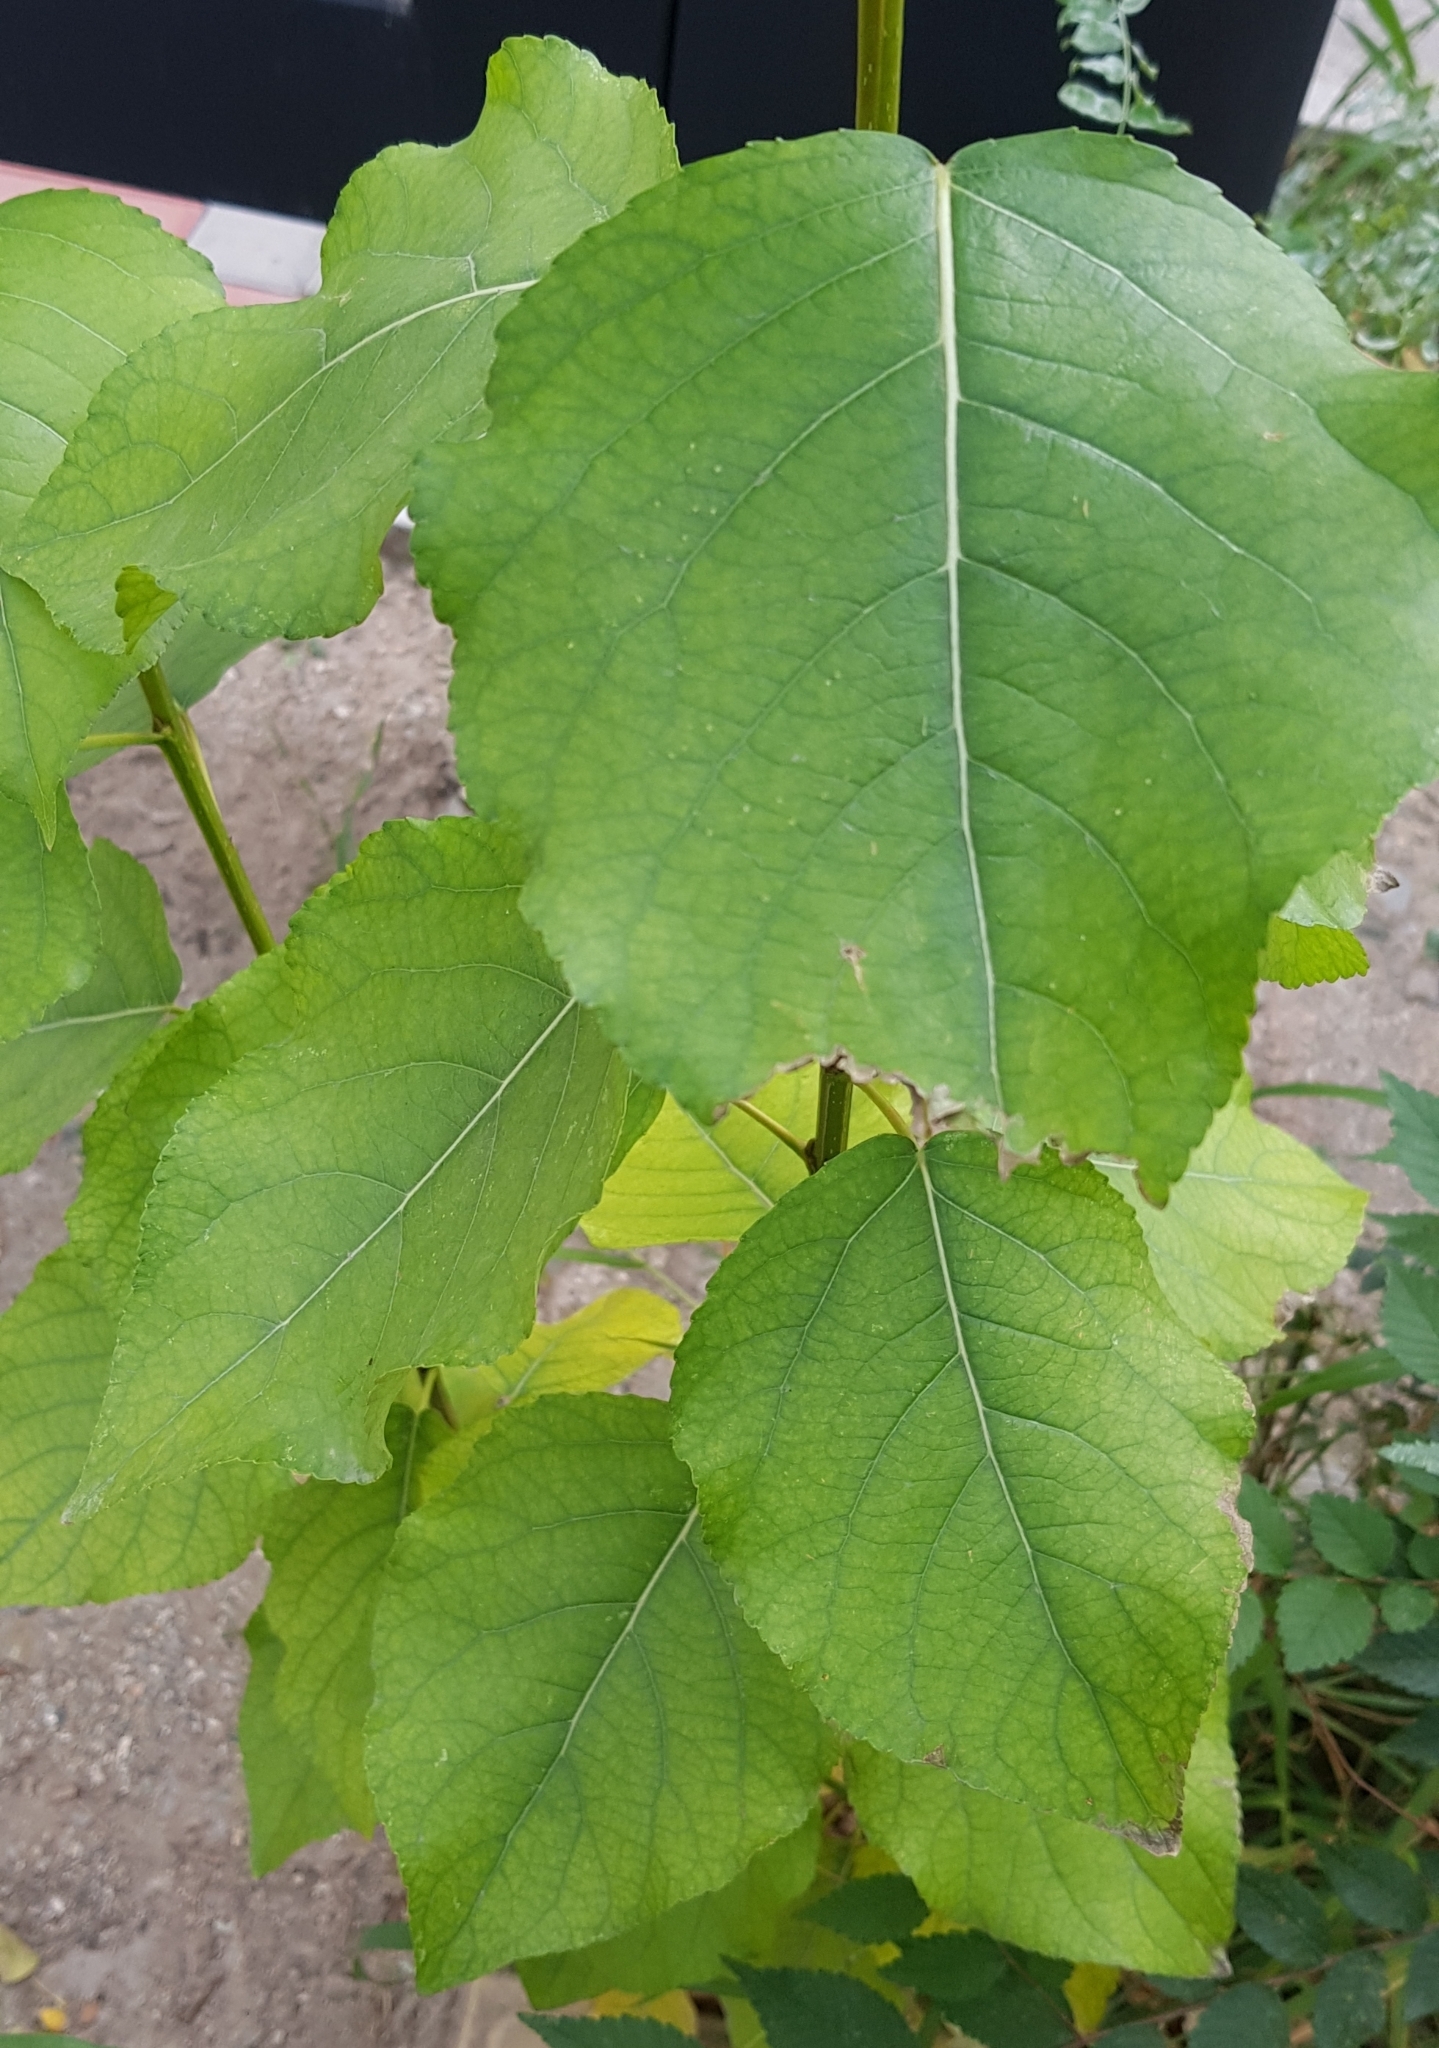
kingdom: Plantae
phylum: Tracheophyta
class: Magnoliopsida
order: Malpighiales
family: Salicaceae
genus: Populus
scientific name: Populus laurifolia
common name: Laurel-leaf poplar
